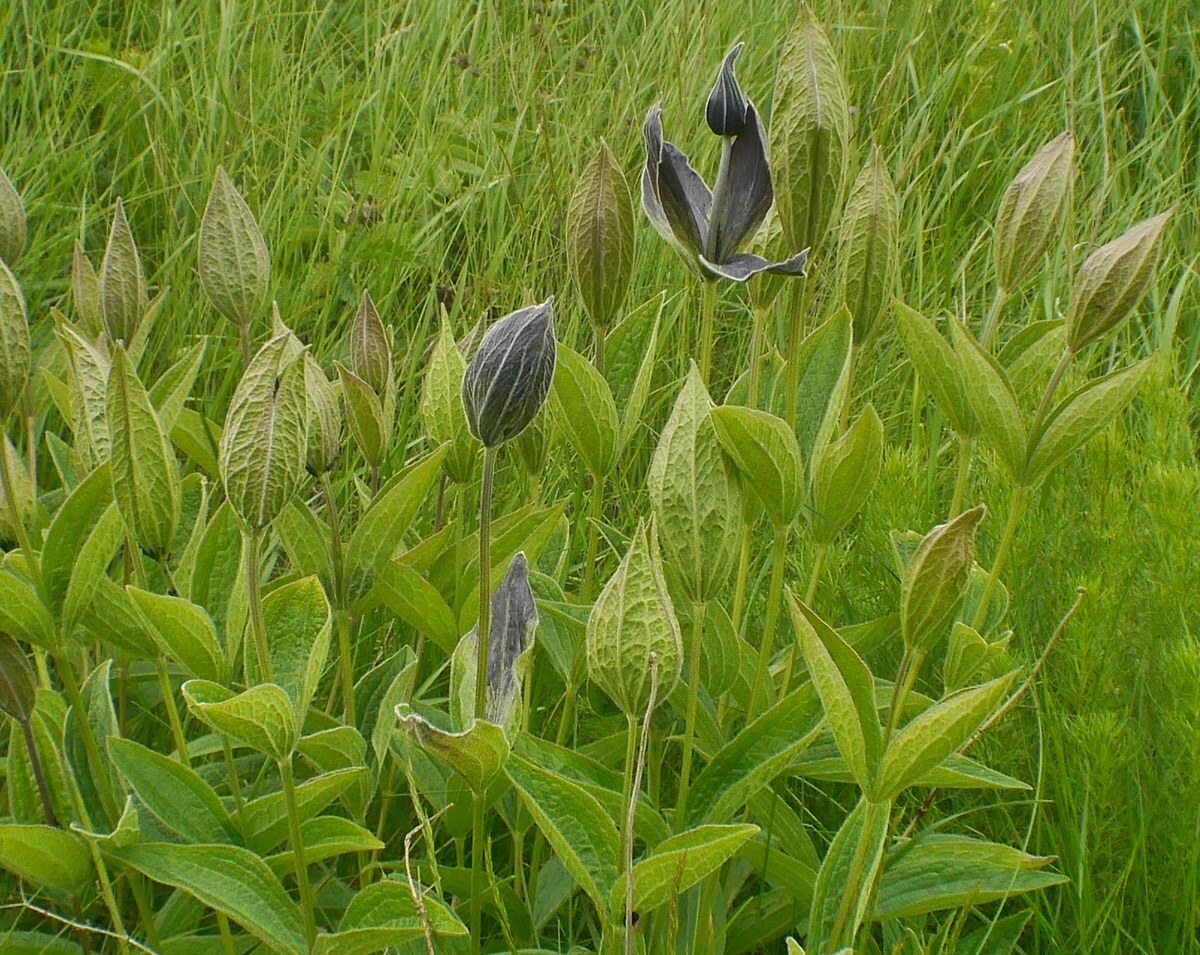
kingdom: Plantae
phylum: Tracheophyta
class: Magnoliopsida
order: Ranunculales
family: Ranunculaceae
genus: Clematis
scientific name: Clematis integrifolia
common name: Solitary clematis
